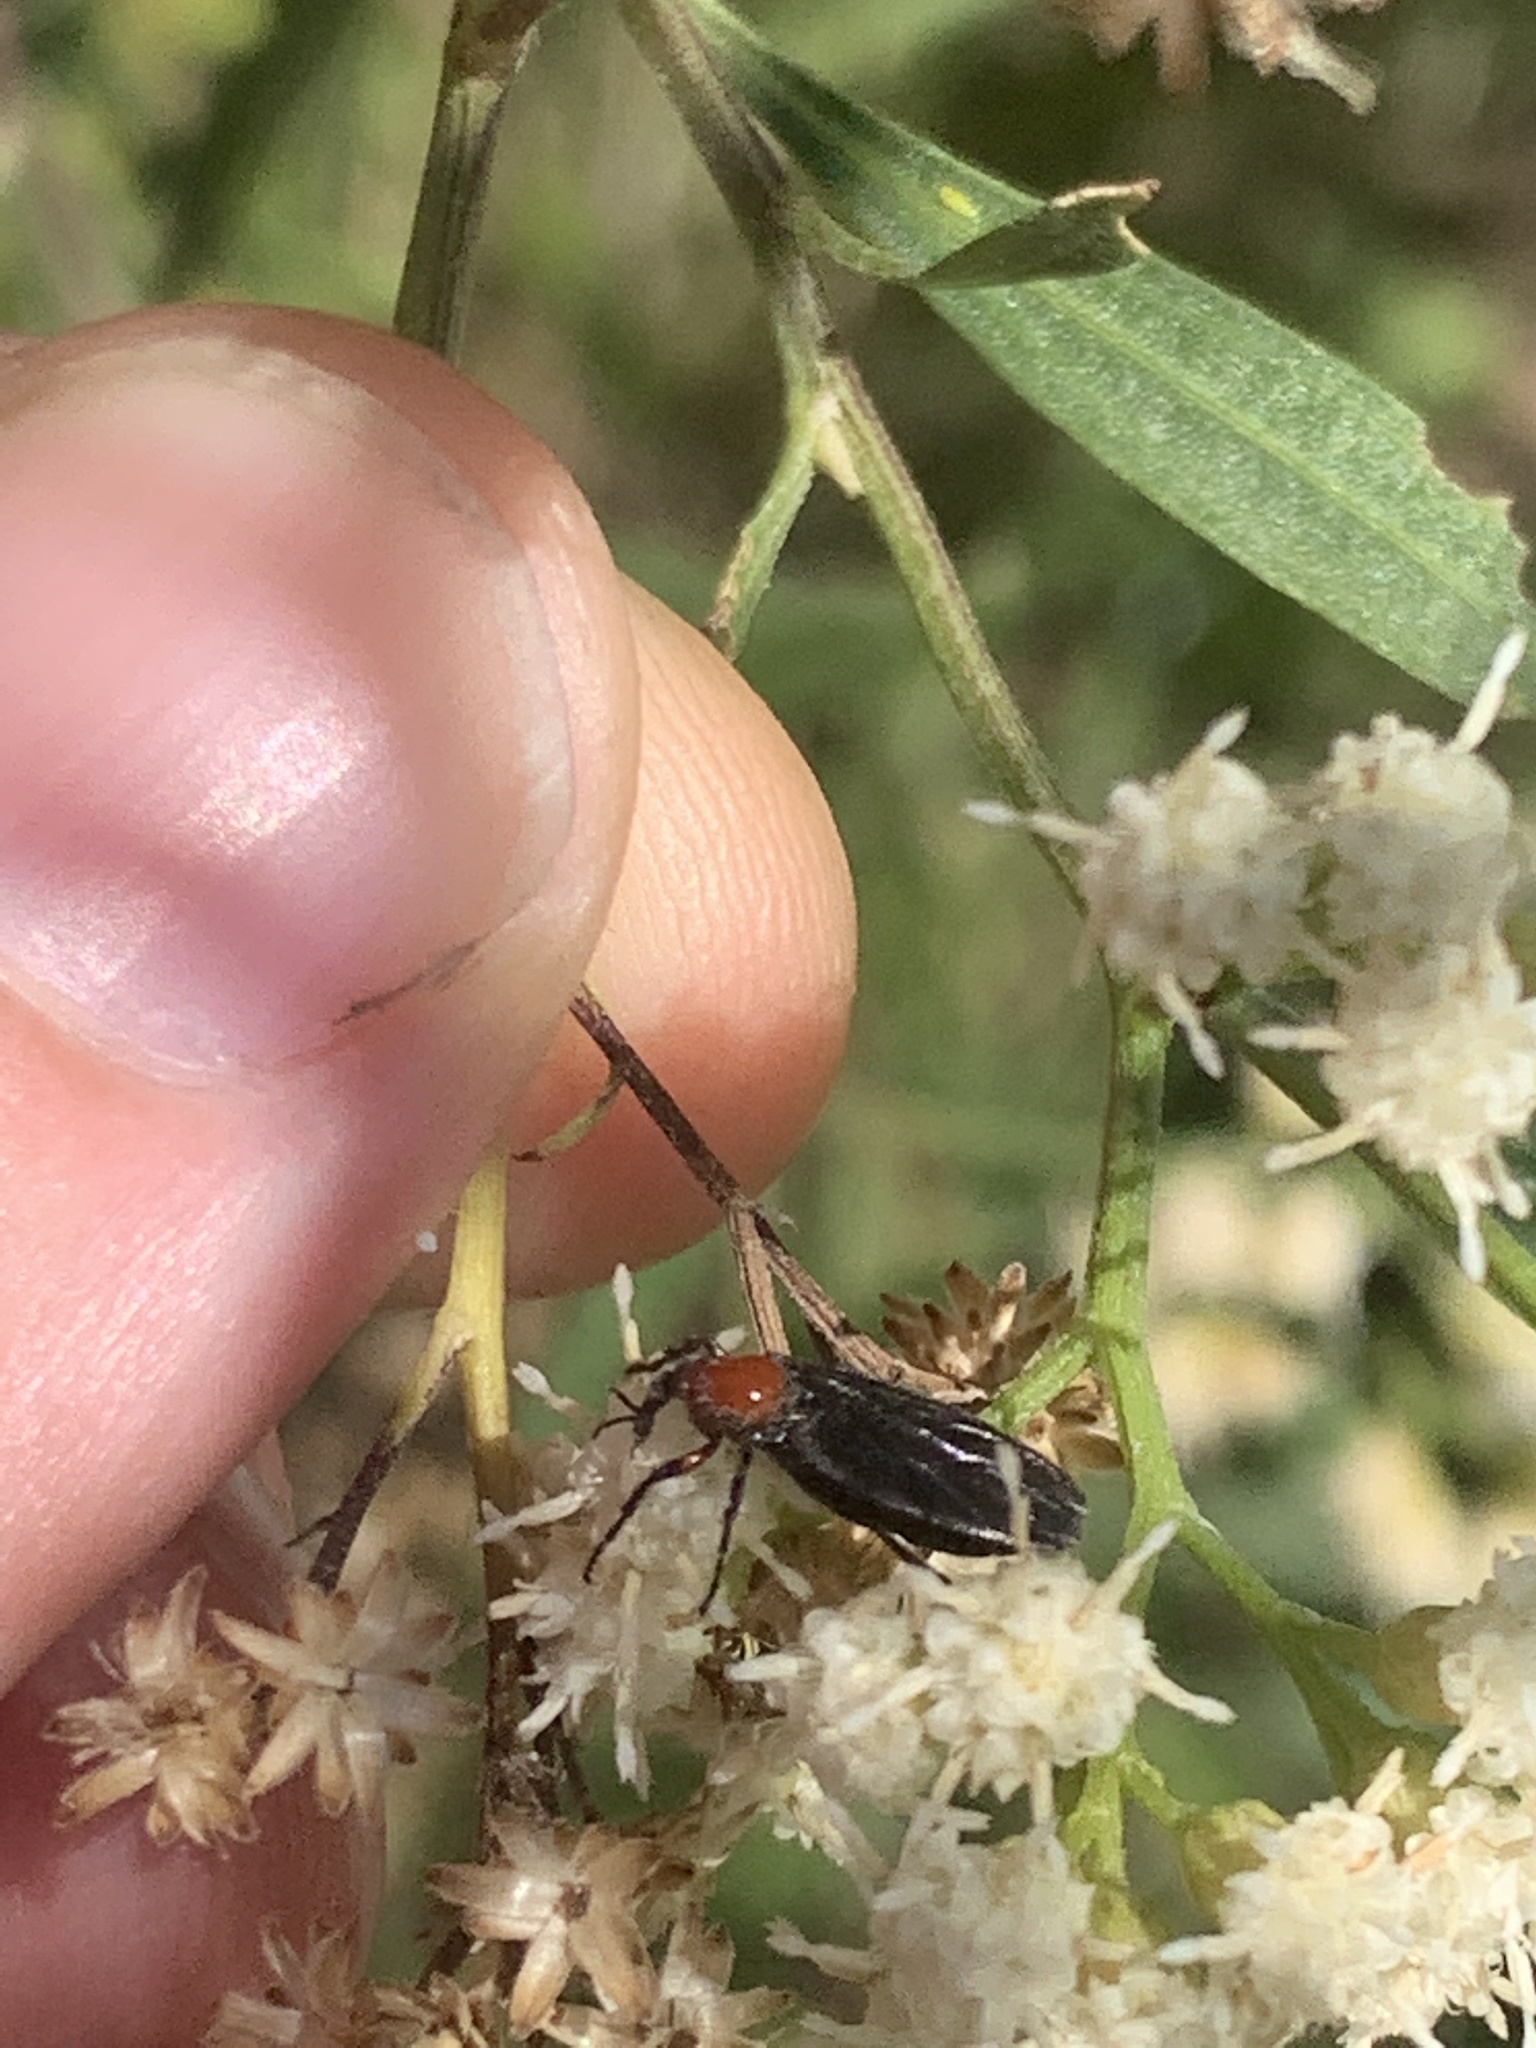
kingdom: Animalia
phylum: Arthropoda
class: Insecta
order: Diptera
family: Bibionidae
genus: Dilophus
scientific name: Dilophus pectoralis
